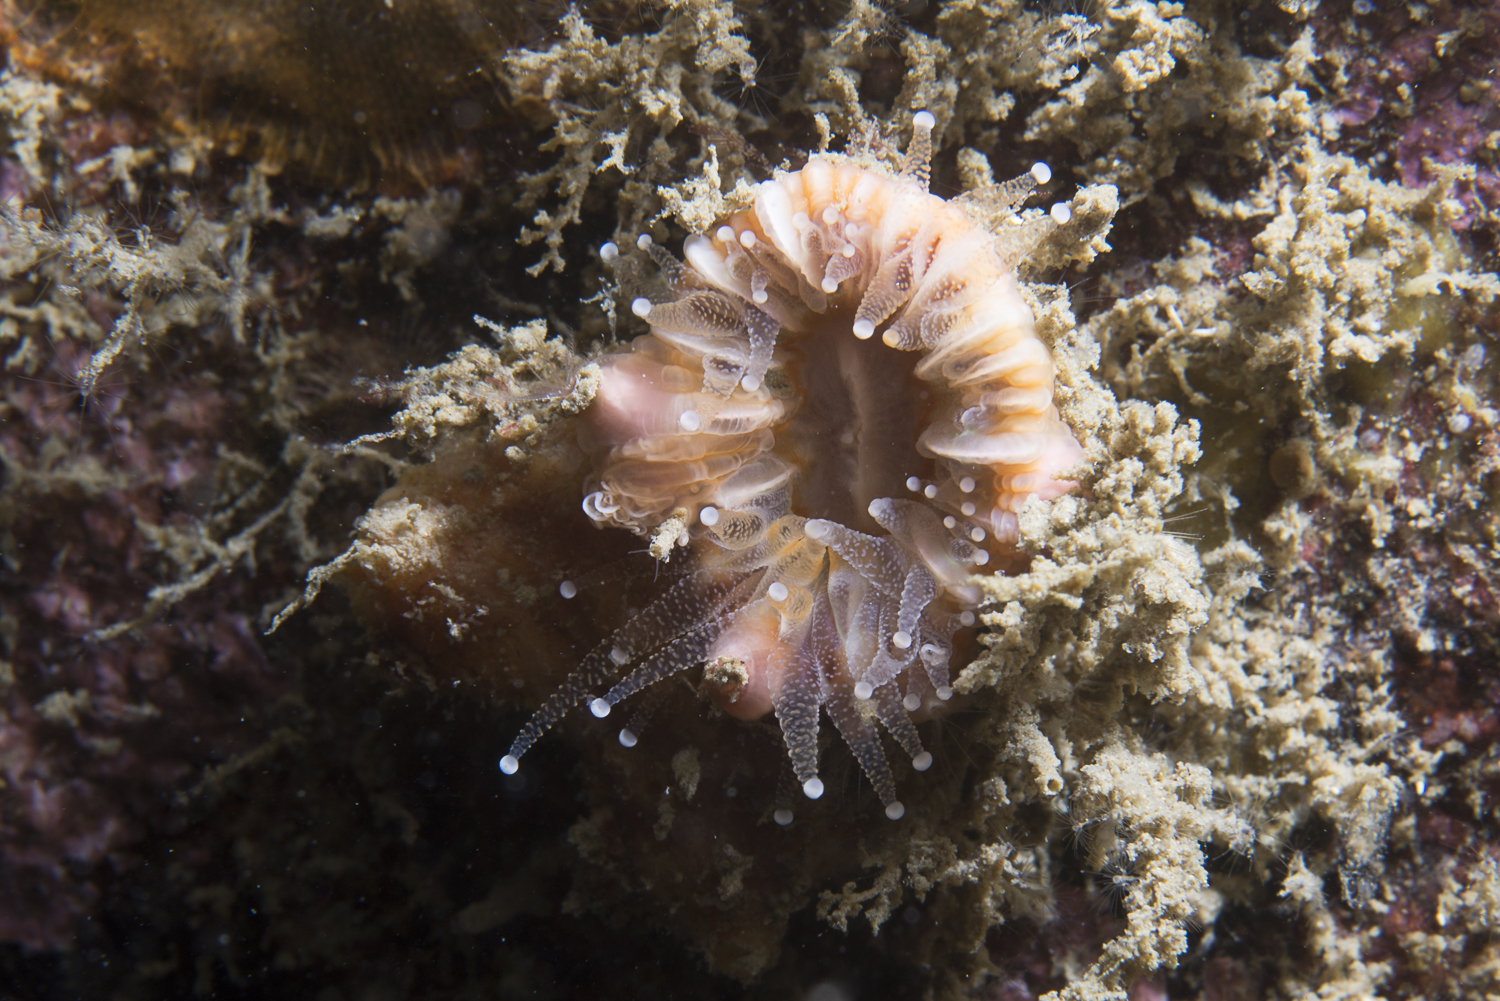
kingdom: Animalia
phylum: Arthropoda
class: Maxillopoda
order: Sessilia
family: Pyrgomatidae
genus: Adna
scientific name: Adna anglica
